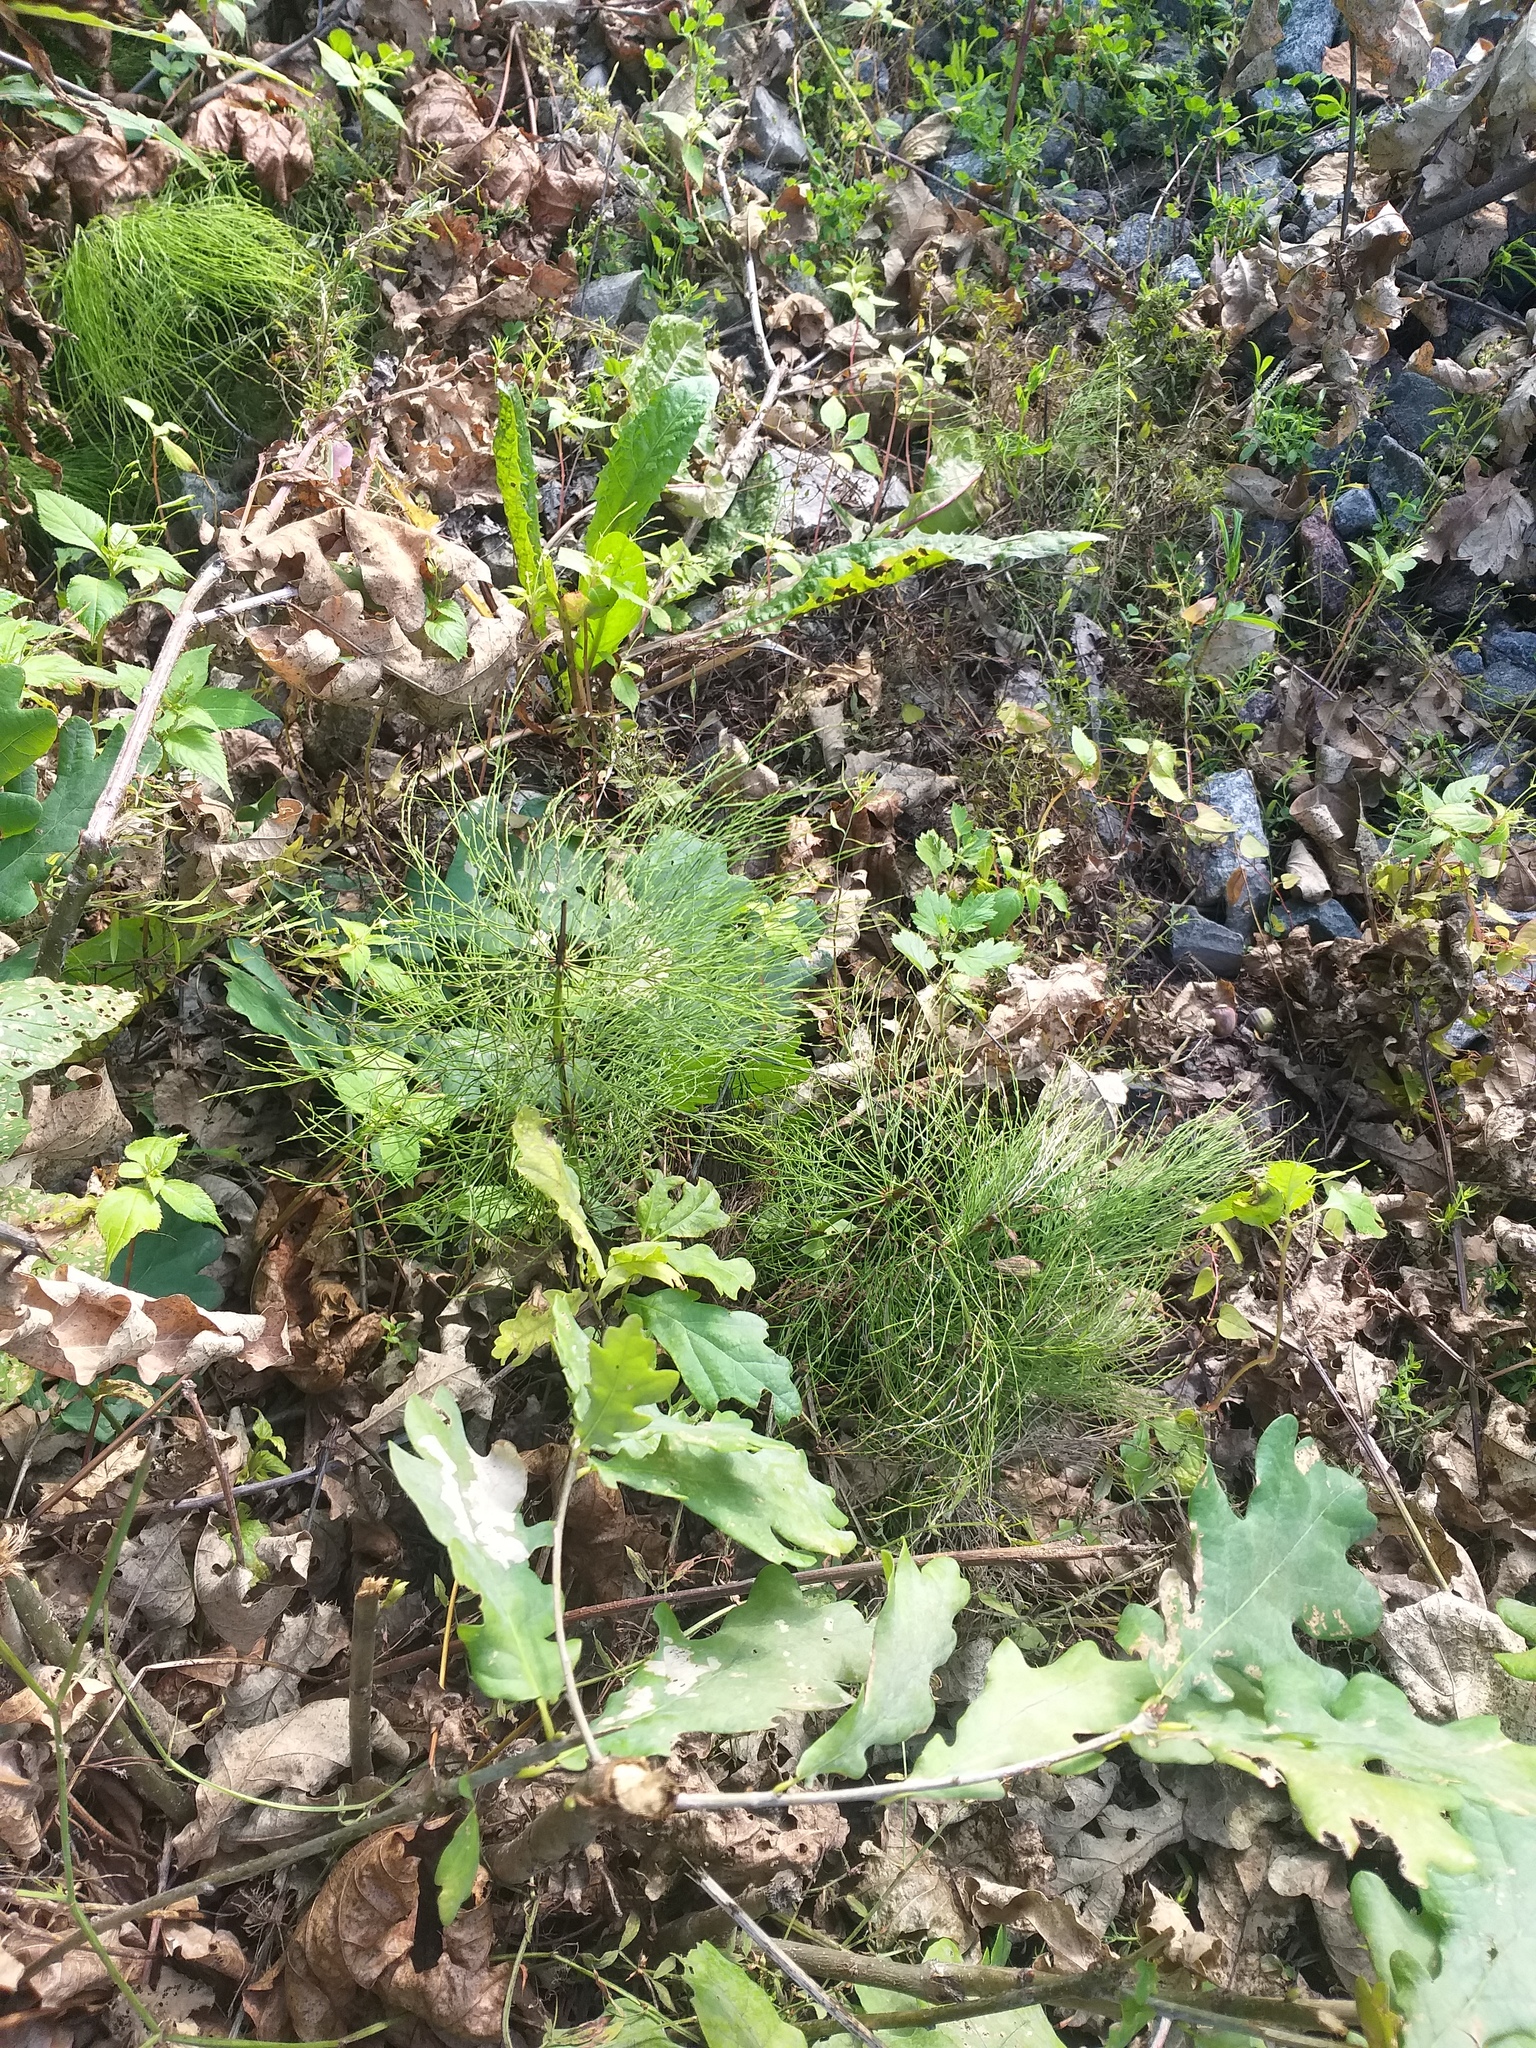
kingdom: Plantae
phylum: Tracheophyta
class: Polypodiopsida
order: Equisetales
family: Equisetaceae
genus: Equisetum
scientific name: Equisetum sylvaticum
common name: Wood horsetail
